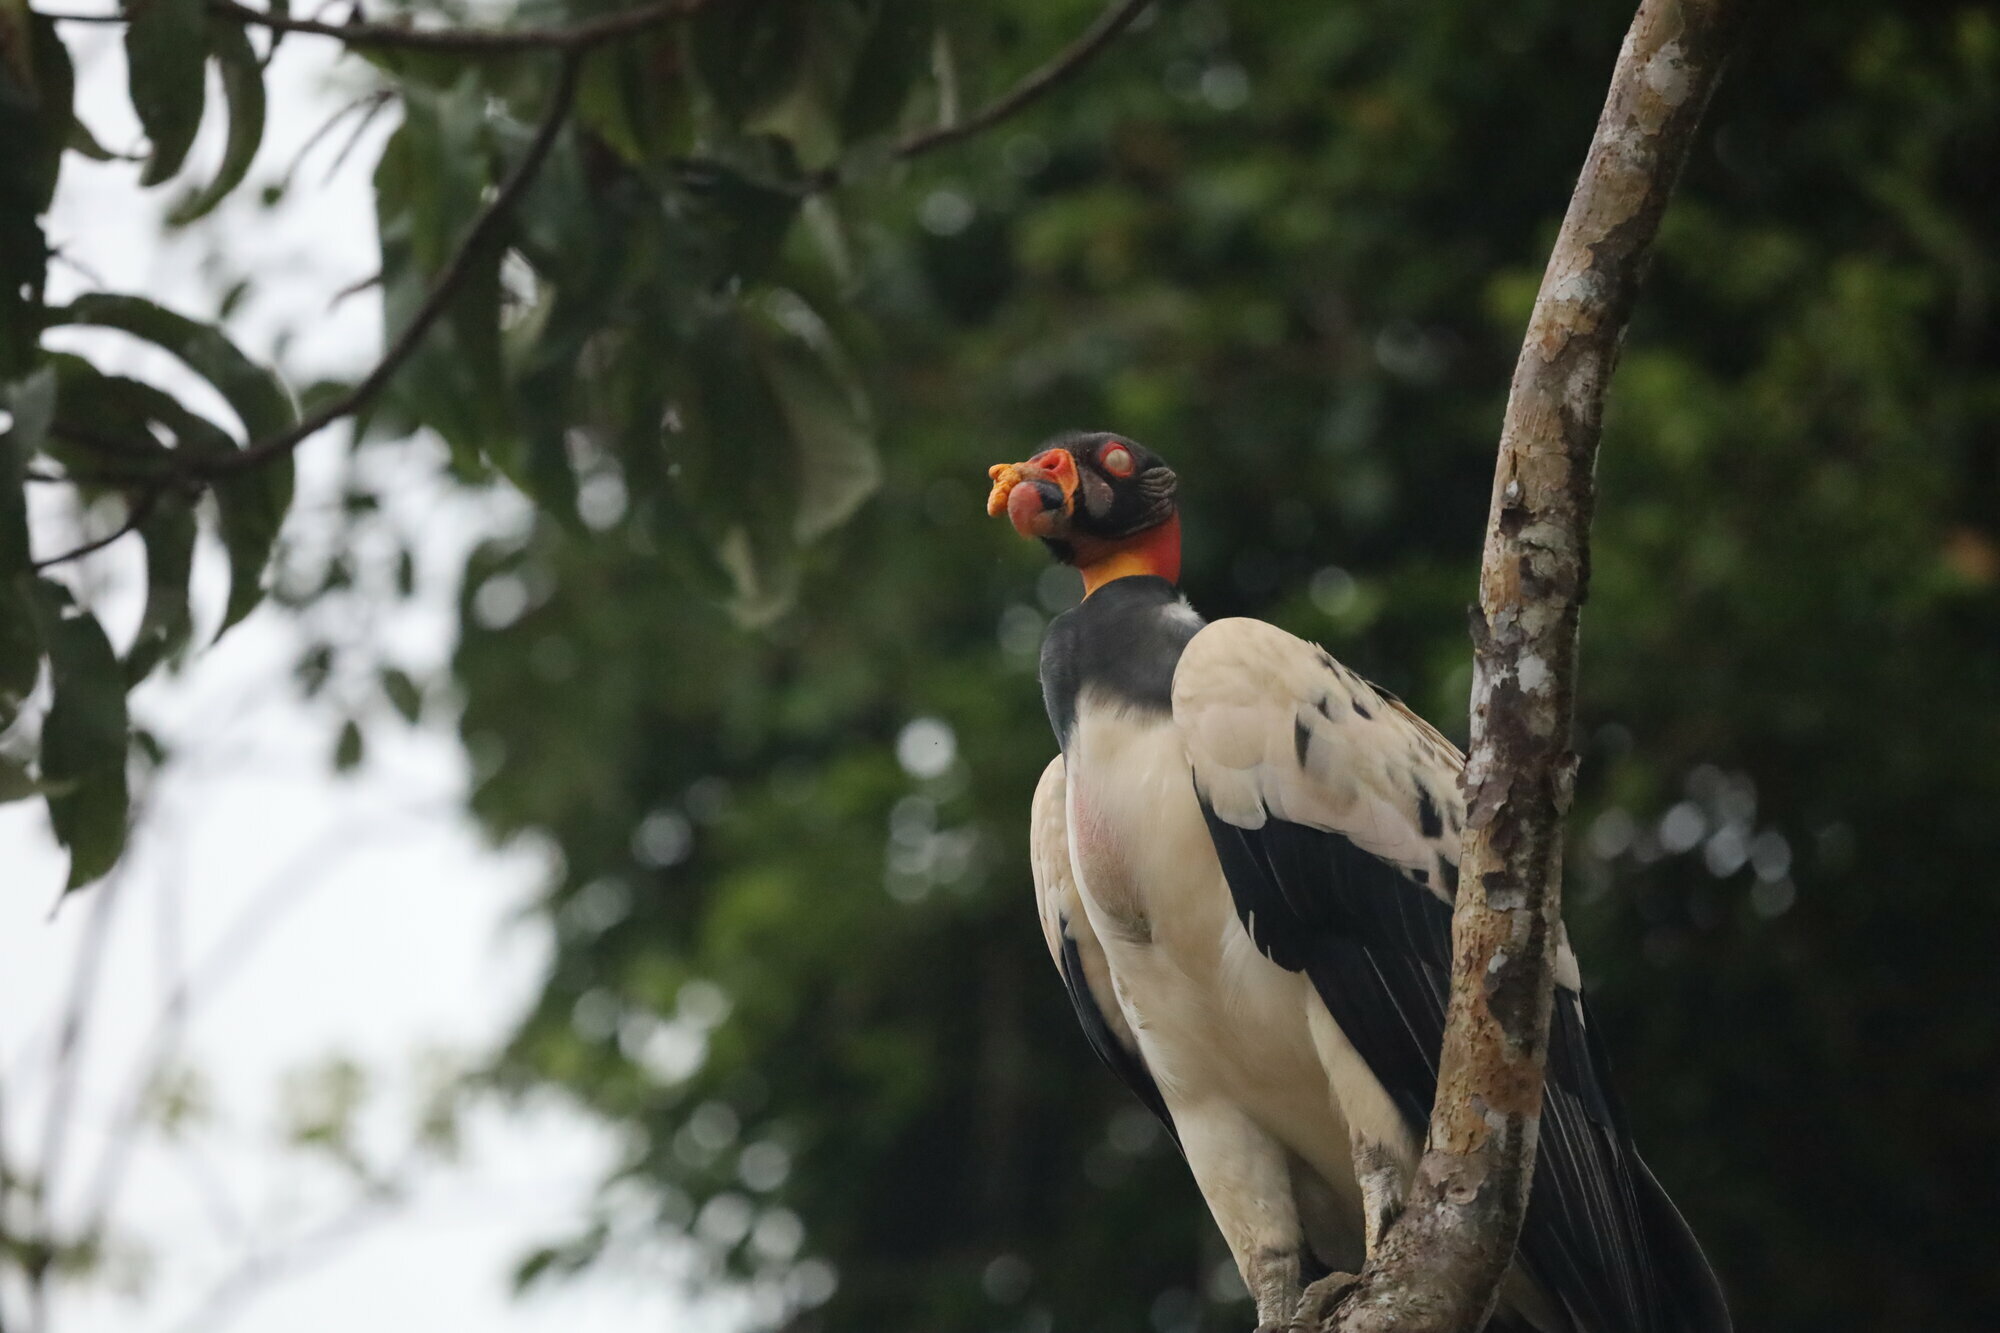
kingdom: Animalia
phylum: Chordata
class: Aves
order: Accipitriformes
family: Cathartidae
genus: Sarcoramphus
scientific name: Sarcoramphus papa
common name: King vulture
